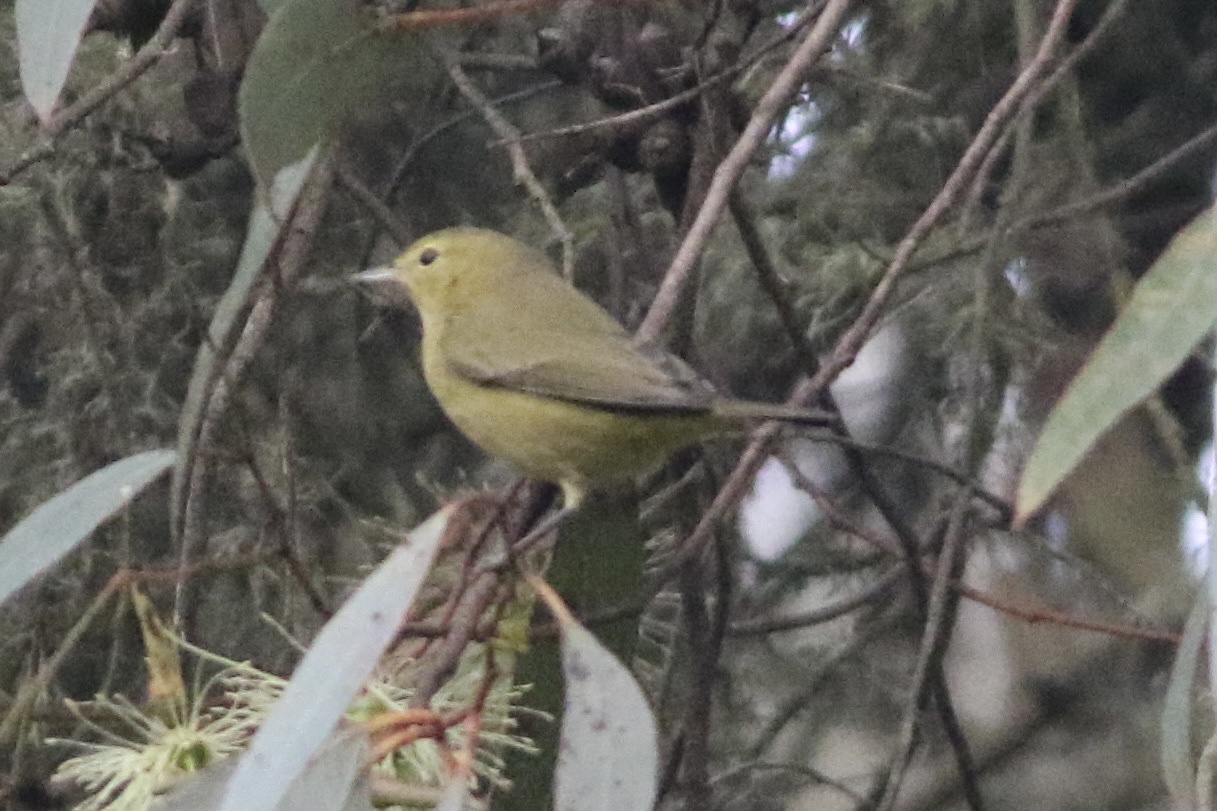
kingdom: Animalia
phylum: Chordata
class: Aves
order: Passeriformes
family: Parulidae
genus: Leiothlypis
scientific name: Leiothlypis celata
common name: Orange-crowned warbler
